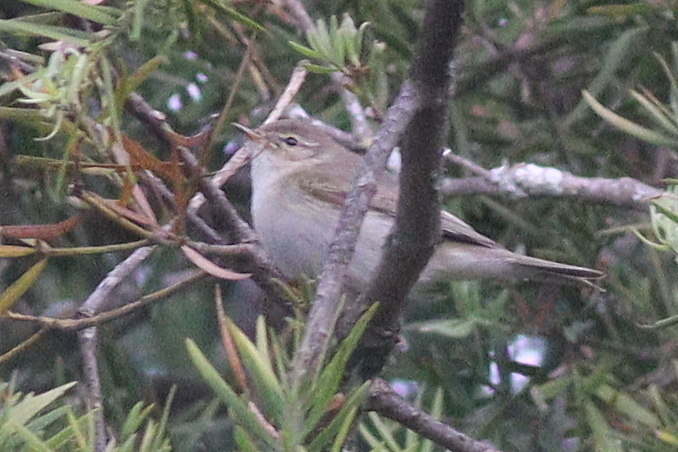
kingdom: Animalia
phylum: Chordata
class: Aves
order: Passeriformes
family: Phylloscopidae
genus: Phylloscopus
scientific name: Phylloscopus collybita
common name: Common chiffchaff
